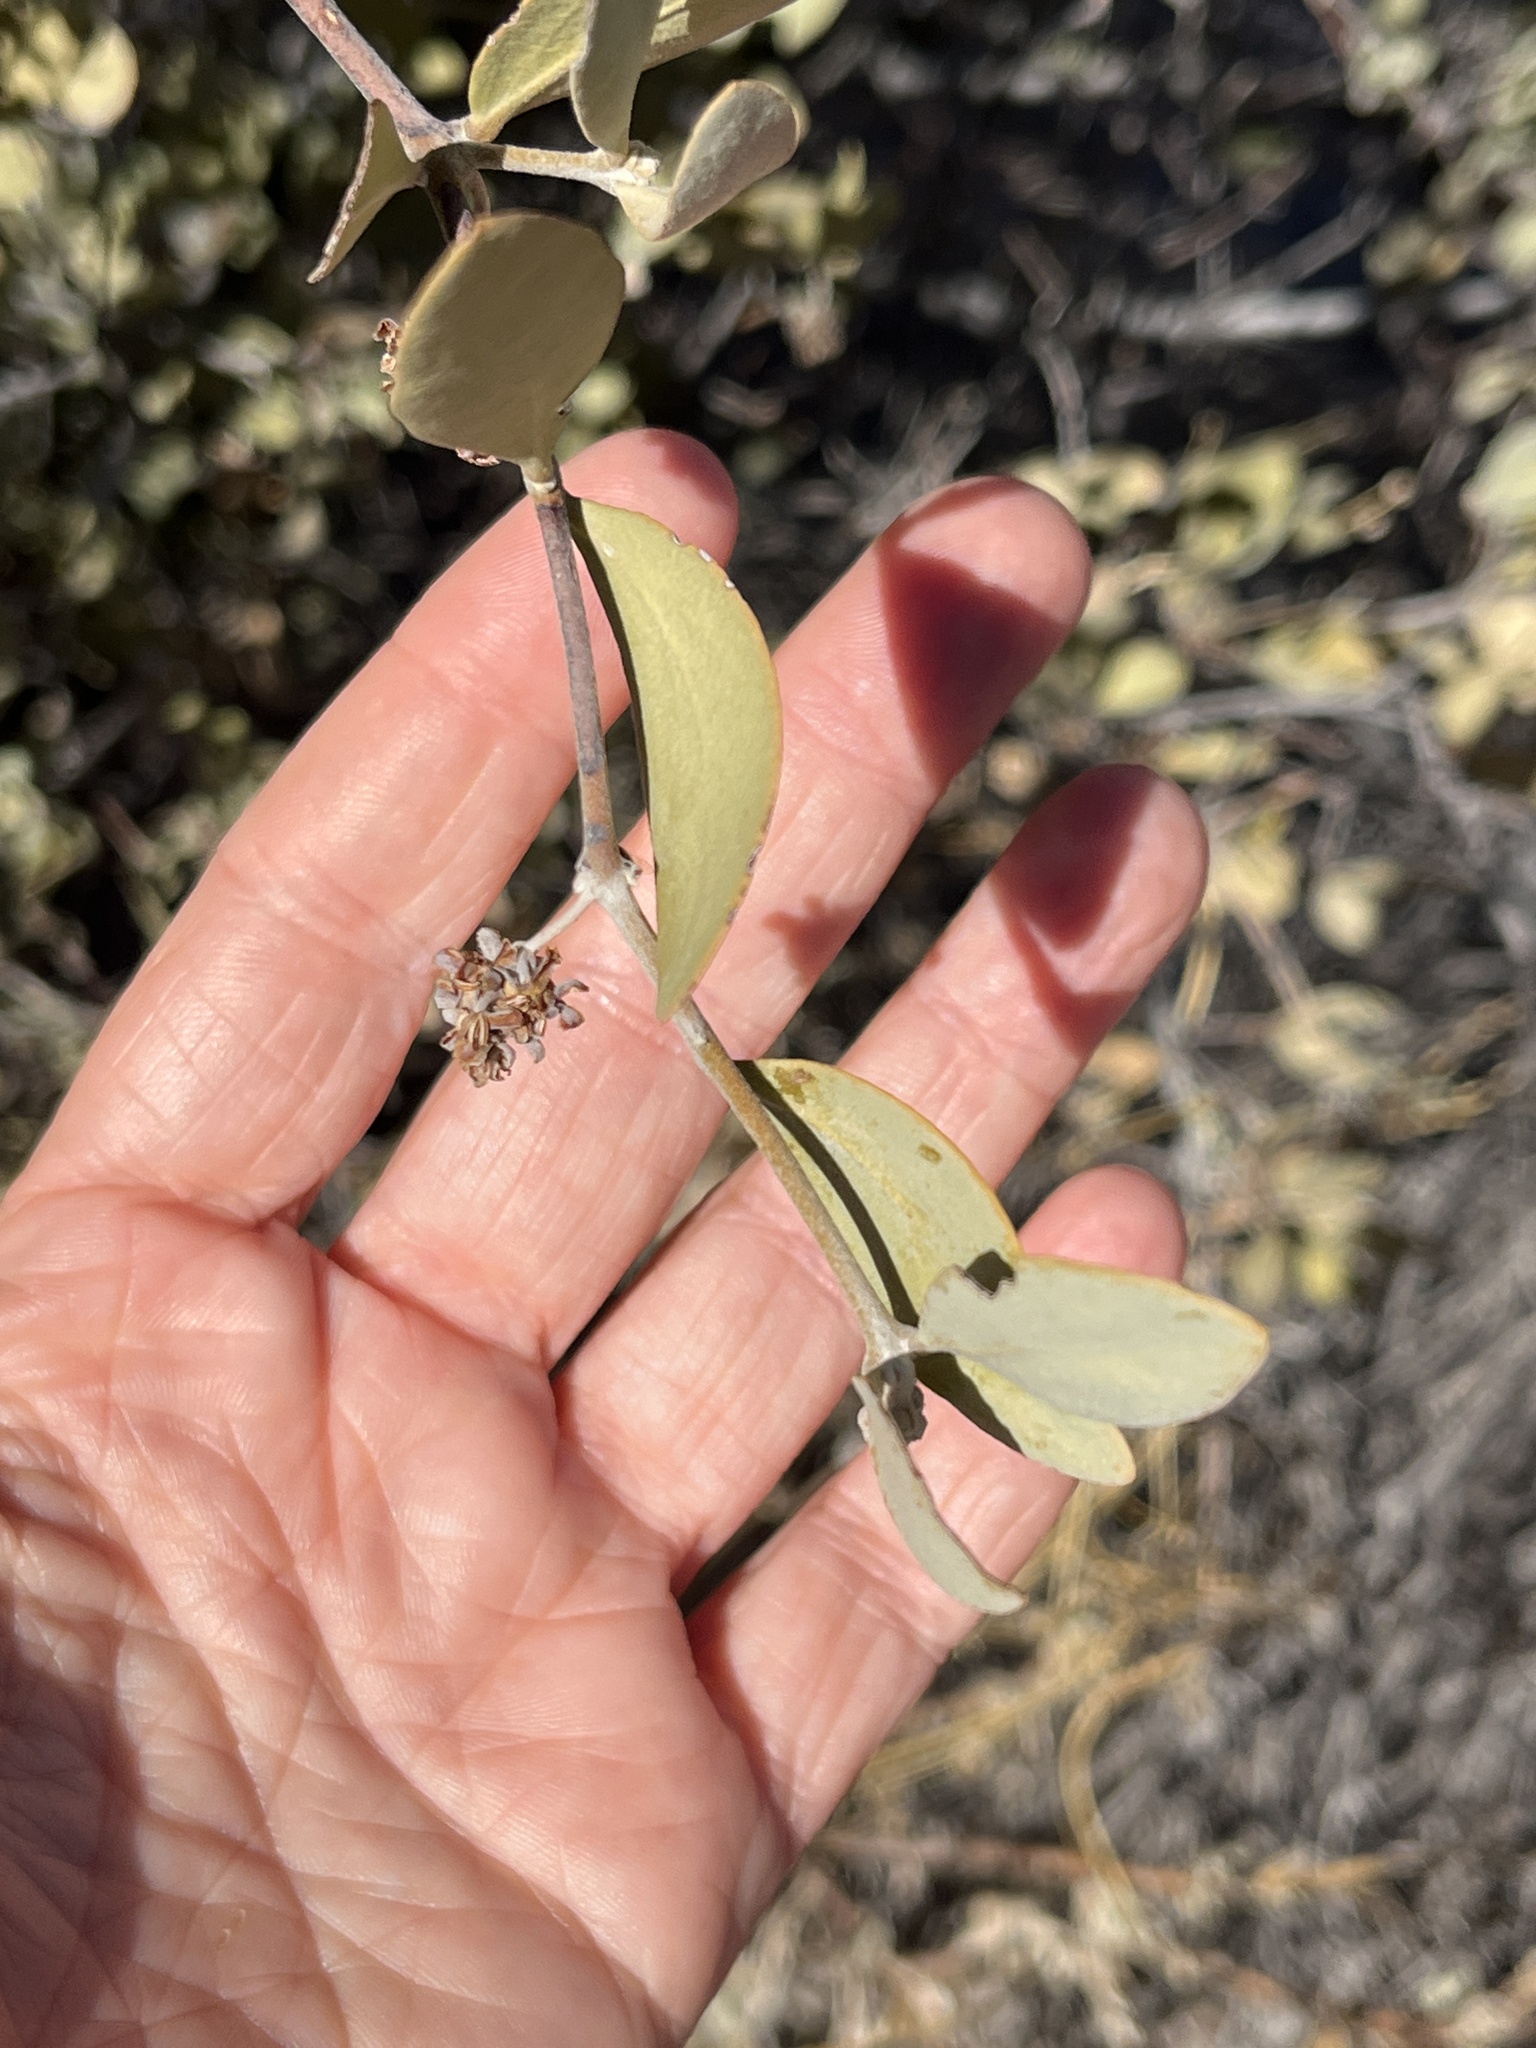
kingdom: Plantae
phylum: Tracheophyta
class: Magnoliopsida
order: Caryophyllales
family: Simmondsiaceae
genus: Simmondsia
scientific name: Simmondsia chinensis
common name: Jojoba
